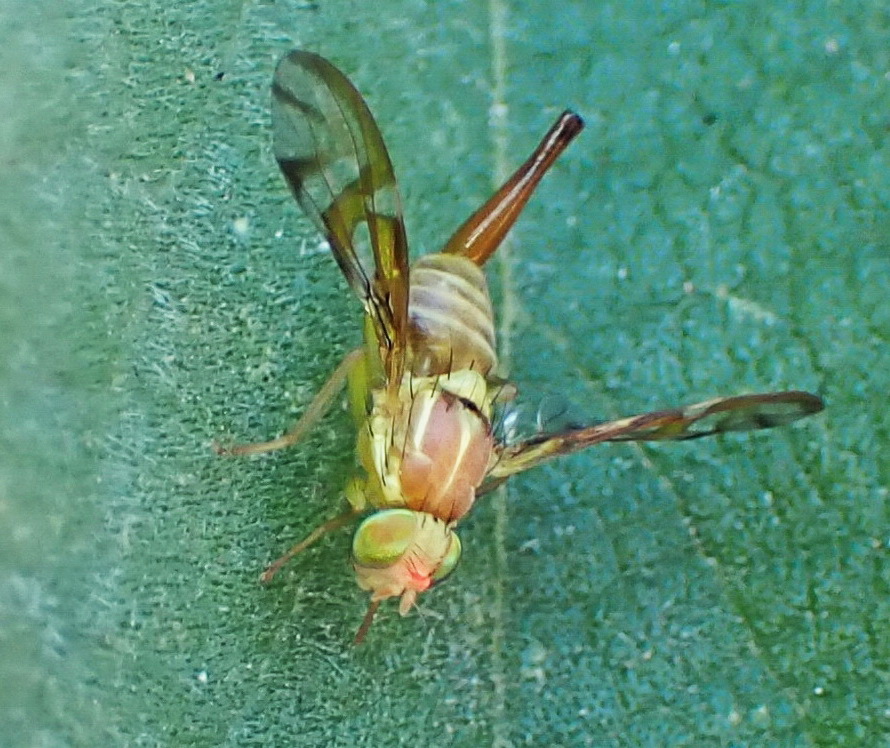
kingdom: Animalia
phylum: Arthropoda
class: Insecta
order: Diptera
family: Tephritidae
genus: Anastrepha
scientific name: Anastrepha ludens
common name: Mexican fruit fly
